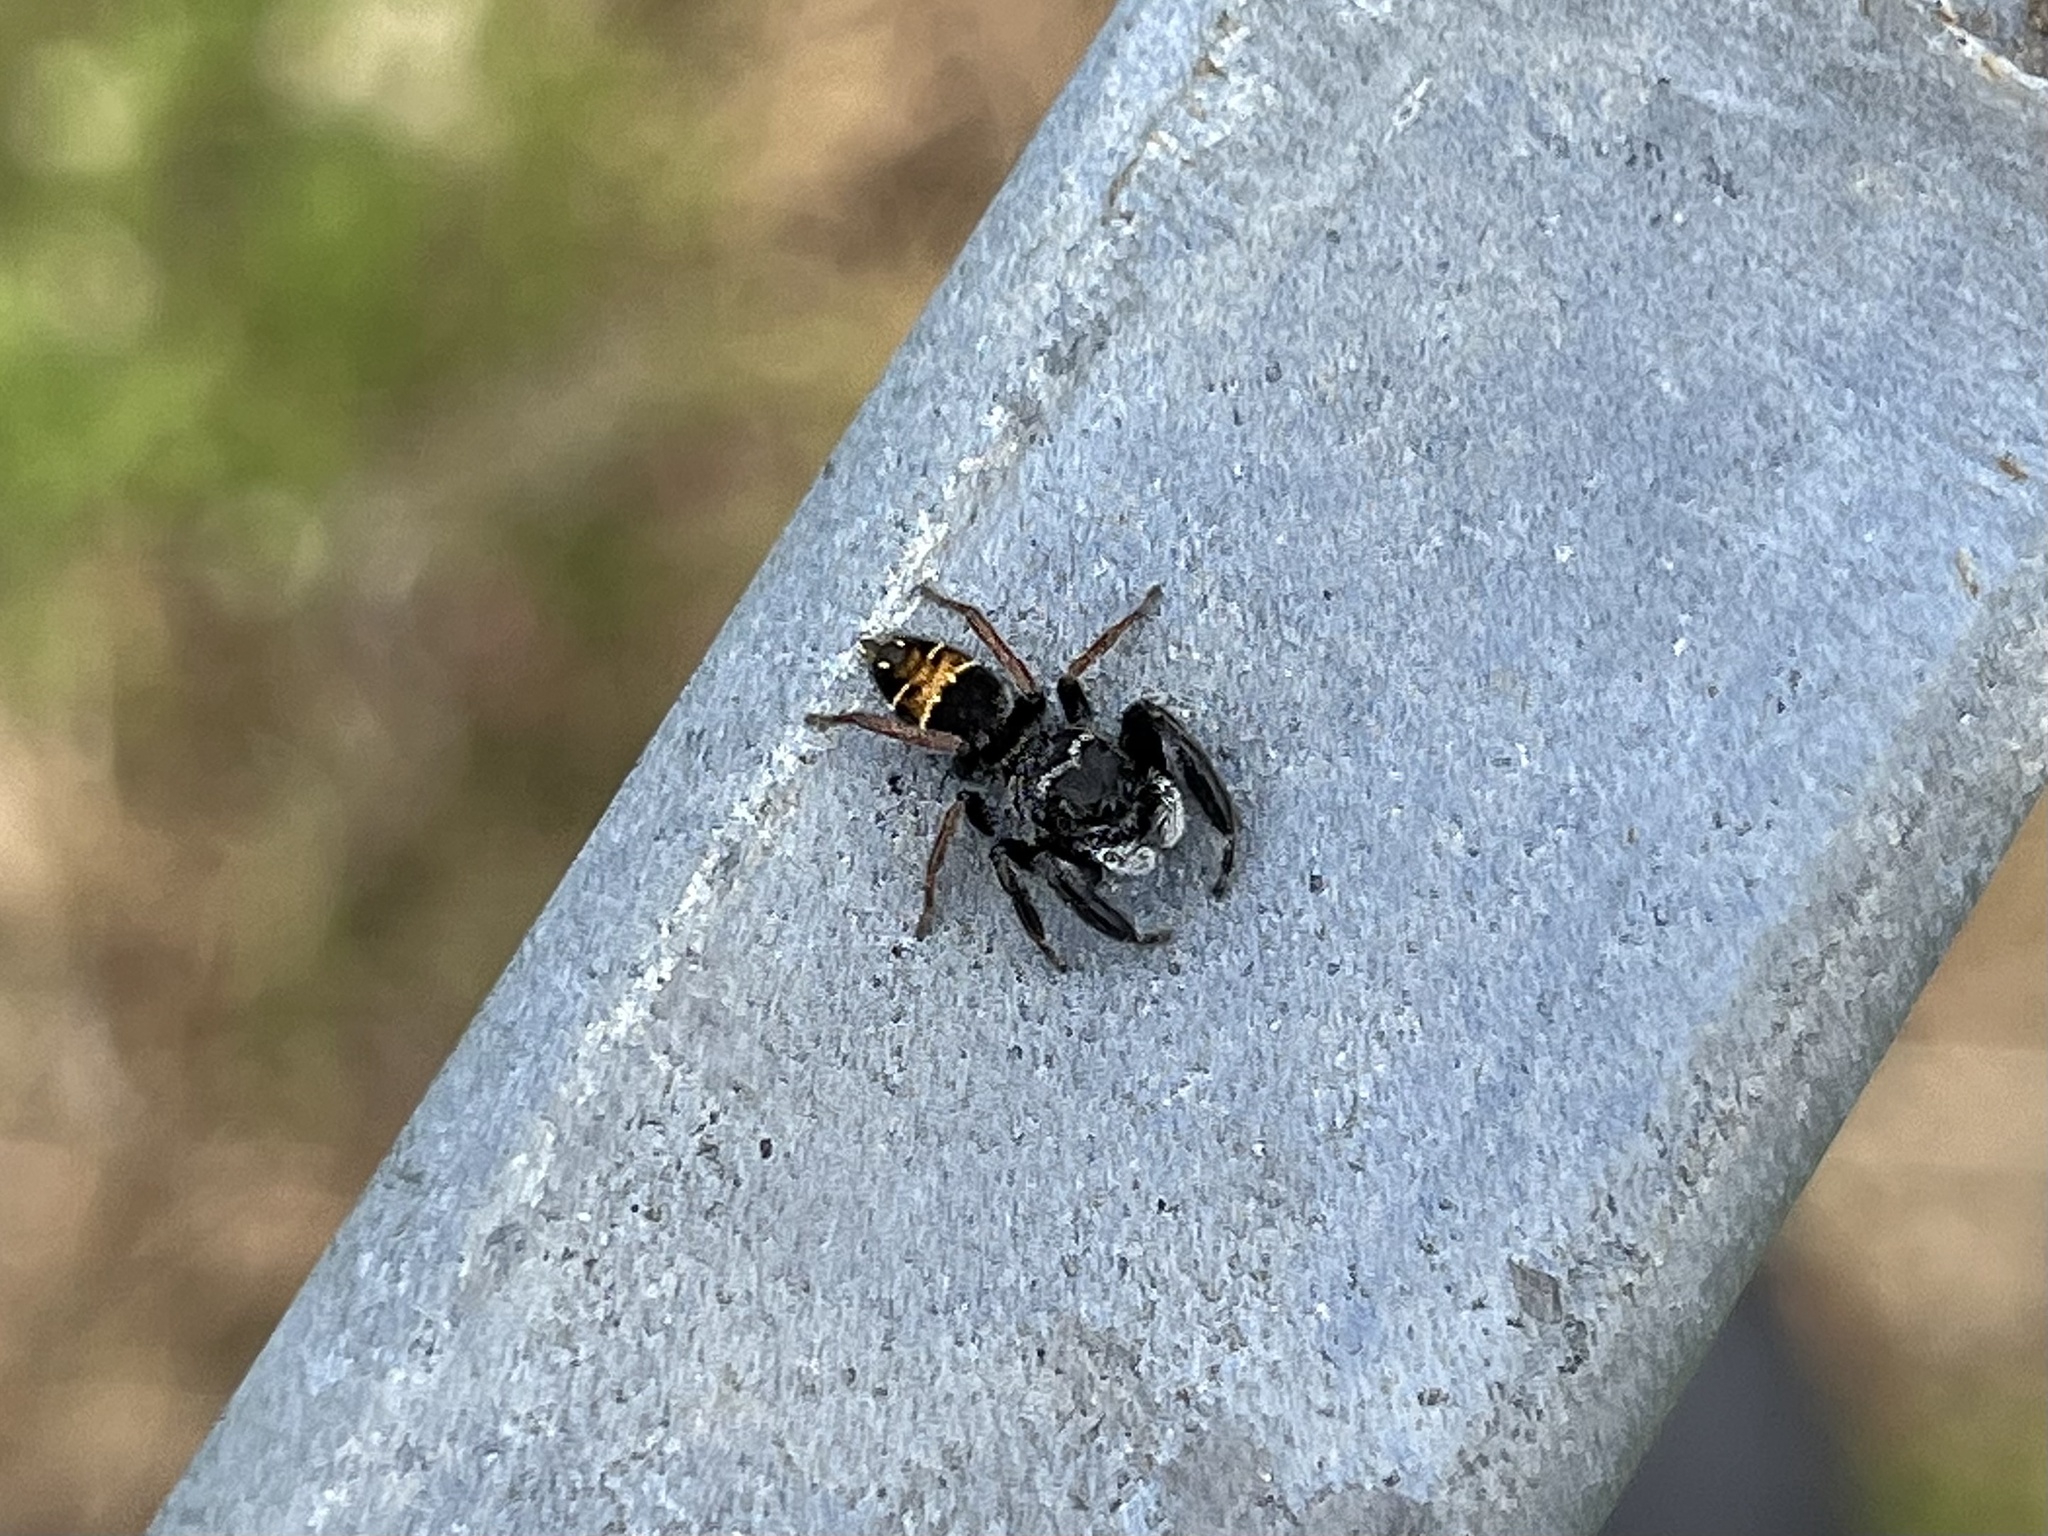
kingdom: Animalia
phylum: Arthropoda
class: Arachnida
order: Araneae
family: Salticidae
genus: Apricia
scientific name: Apricia jovialis
